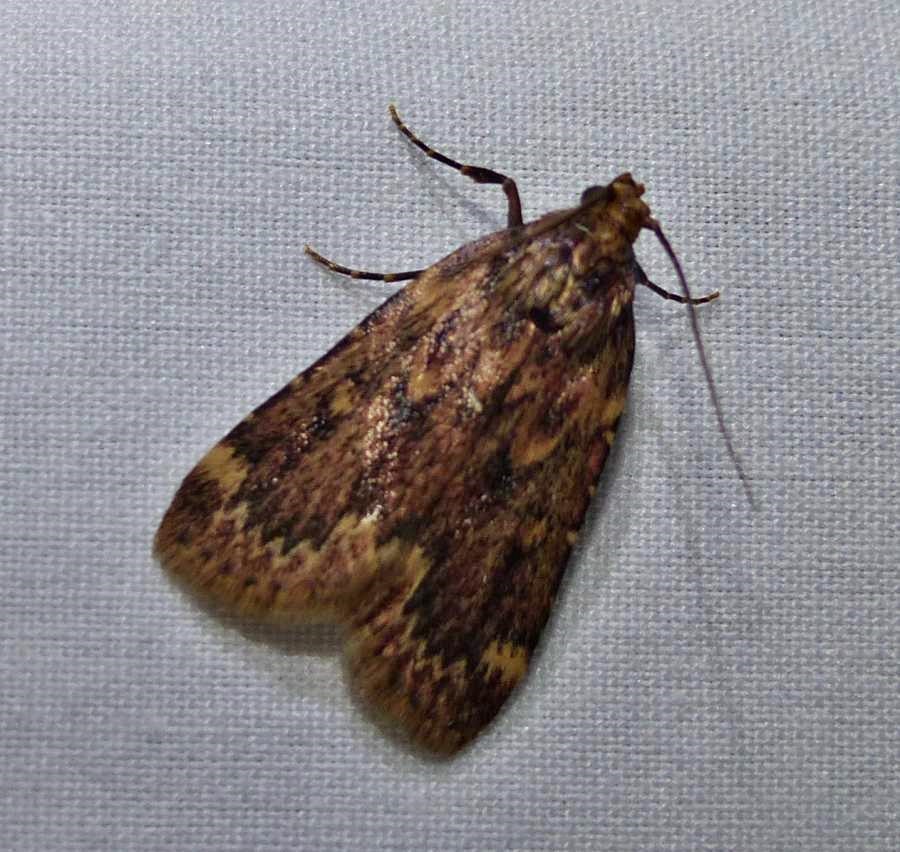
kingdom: Animalia
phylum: Arthropoda
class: Insecta
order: Lepidoptera
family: Pyralidae
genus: Aglossa
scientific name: Aglossa cuprina
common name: Grease moth
